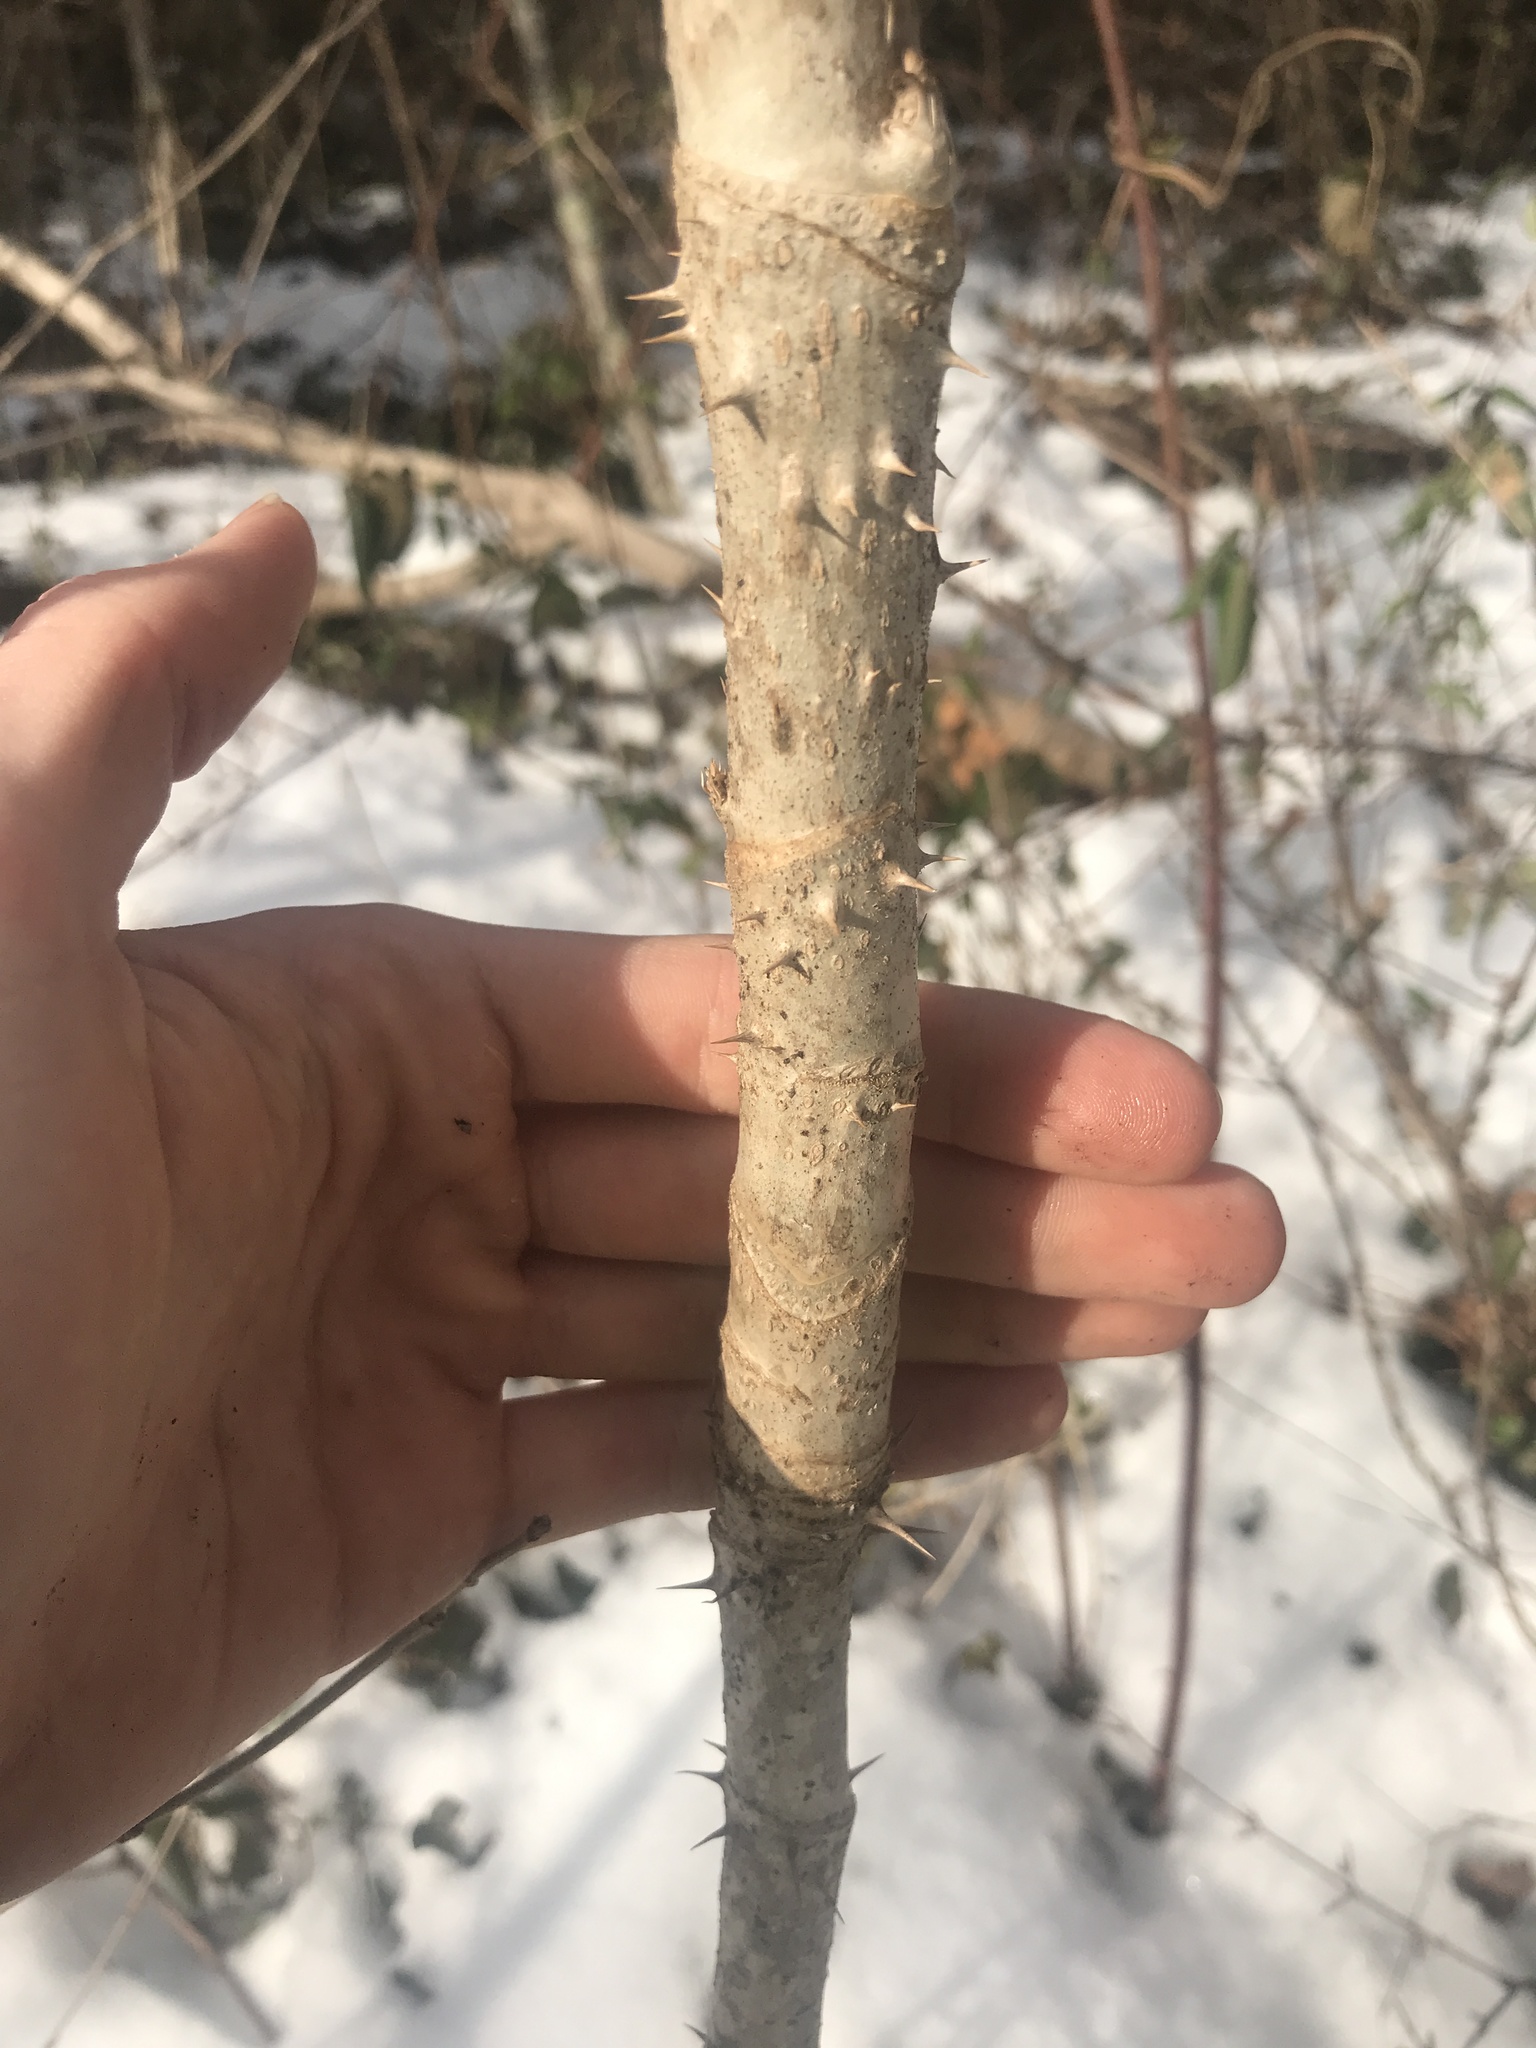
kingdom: Plantae
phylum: Tracheophyta
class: Magnoliopsida
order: Apiales
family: Araliaceae
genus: Aralia
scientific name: Aralia elata
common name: Japanese angelica-tree
